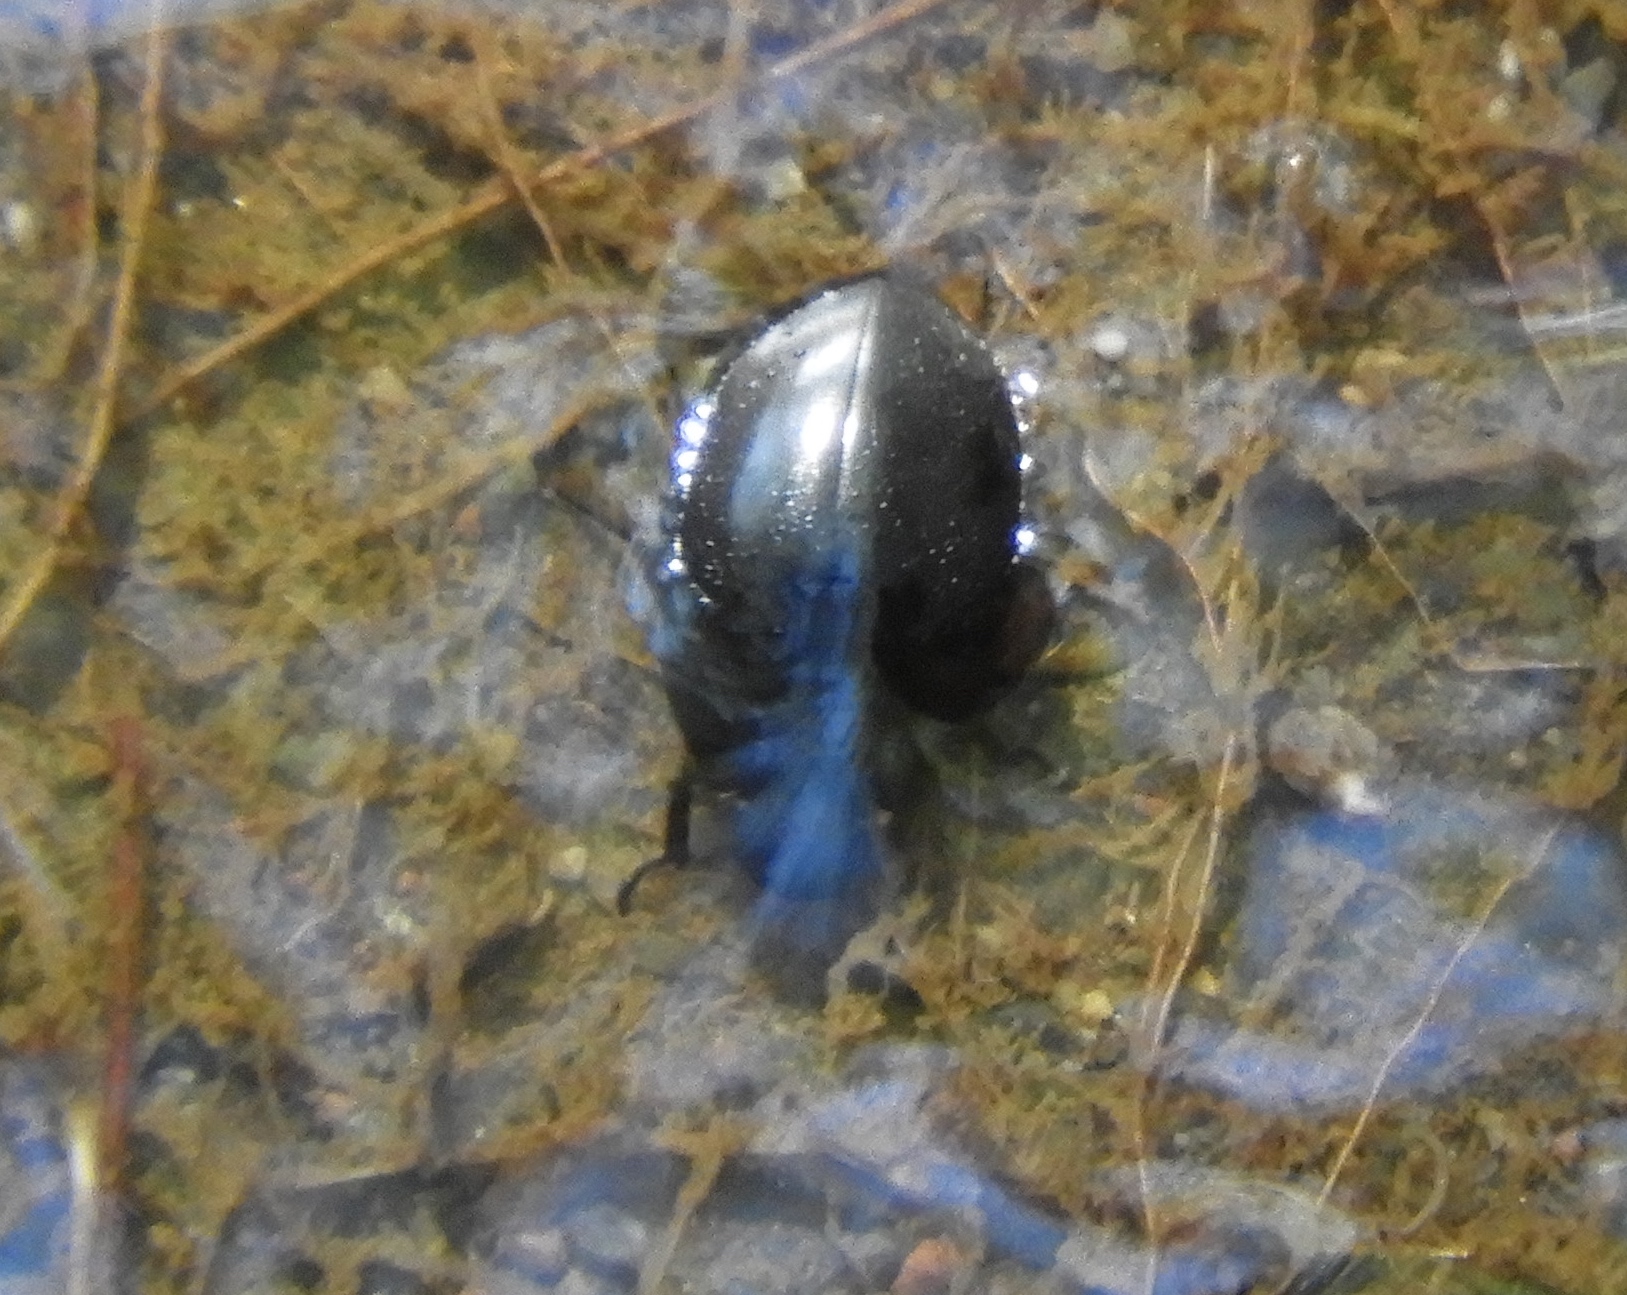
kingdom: Animalia
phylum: Arthropoda
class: Insecta
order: Coleoptera
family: Hydrophilidae
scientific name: Hydrophilidae
